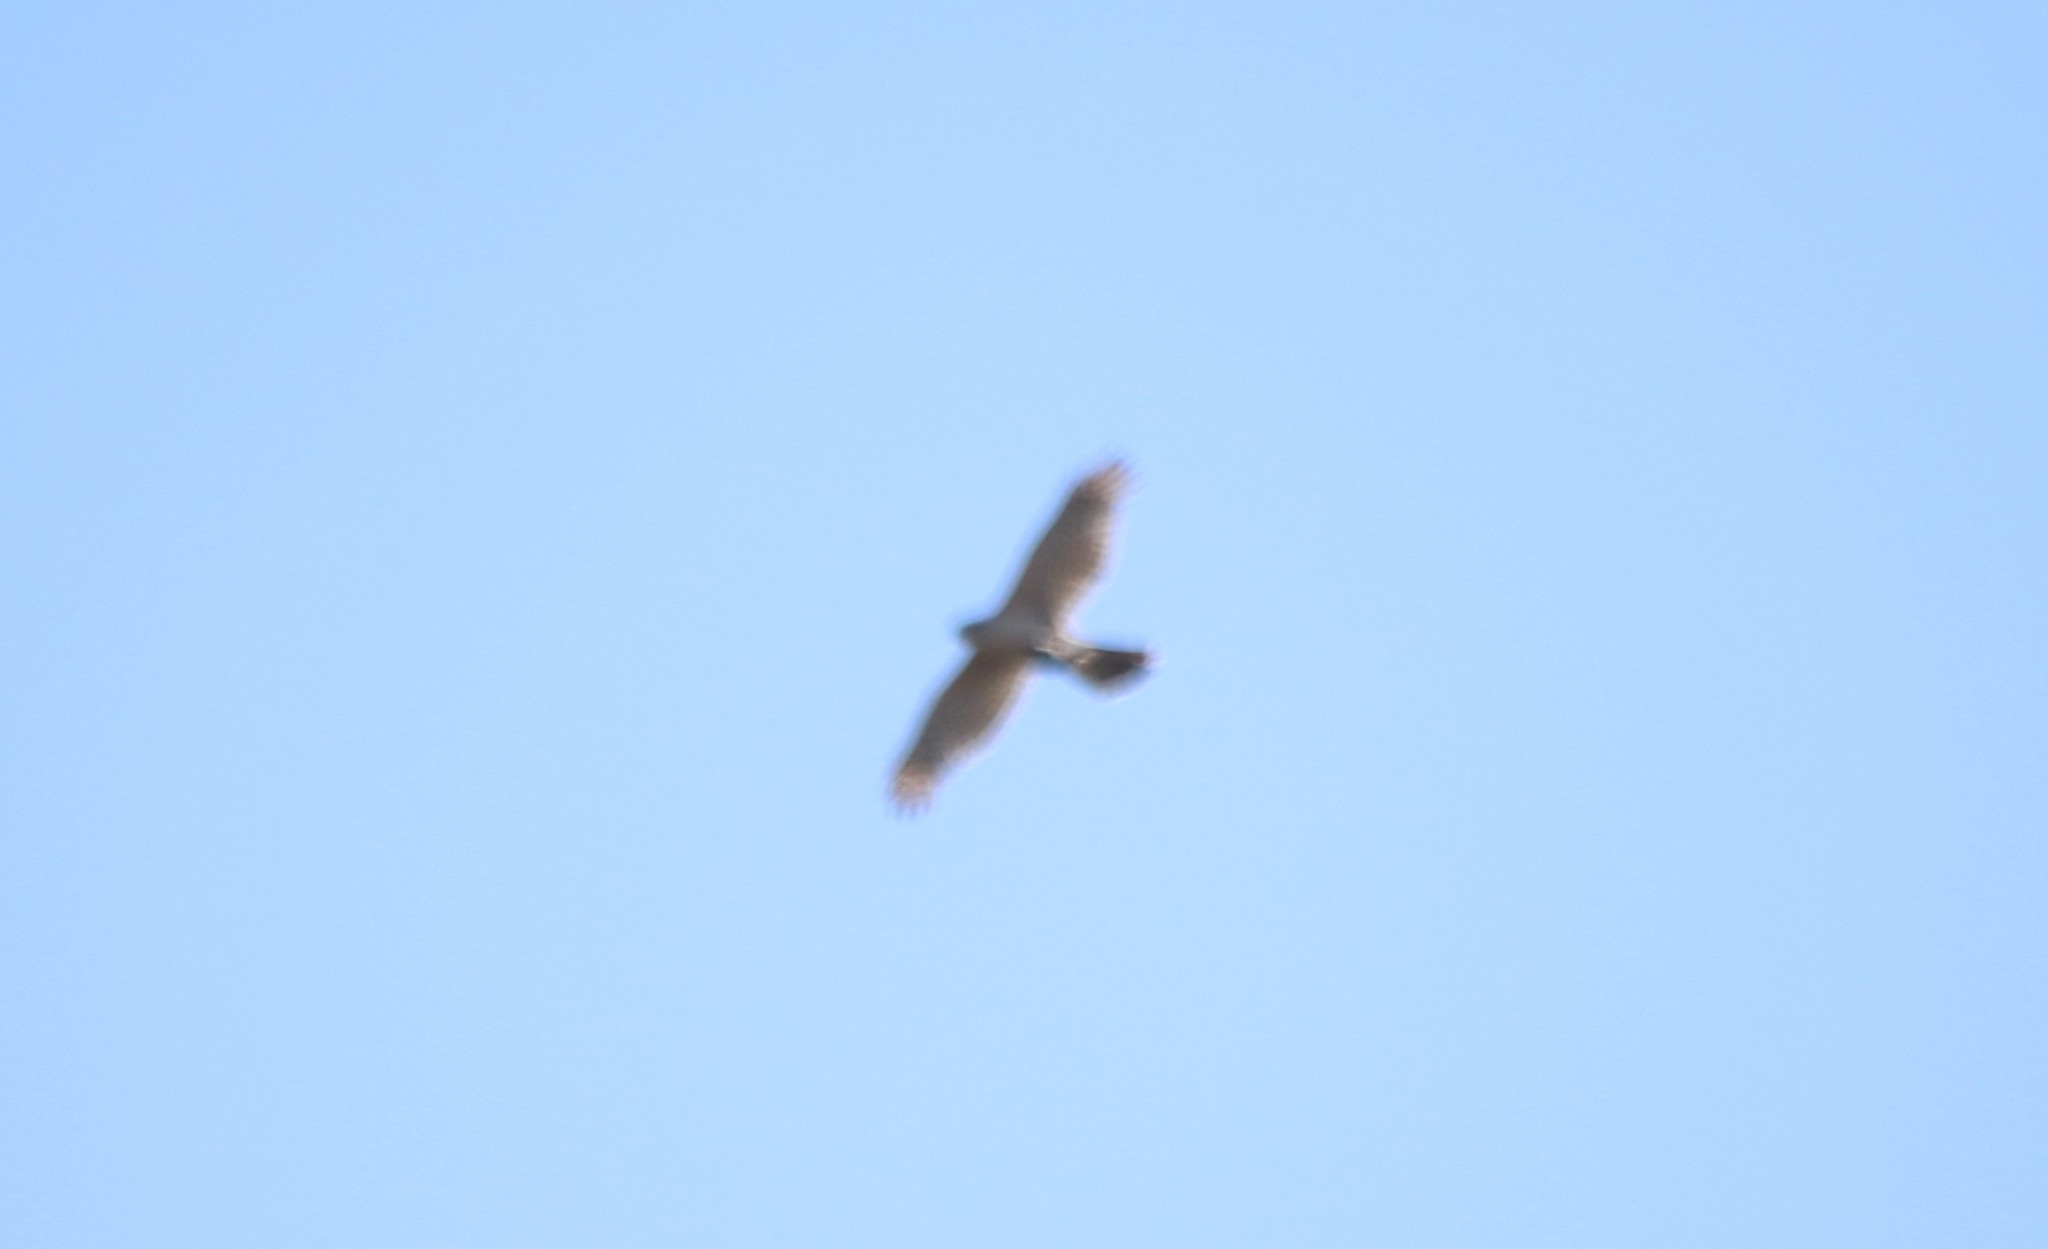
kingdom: Animalia
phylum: Chordata
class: Aves
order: Accipitriformes
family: Accipitridae
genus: Accipiter
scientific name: Accipiter cooperii
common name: Cooper's hawk
